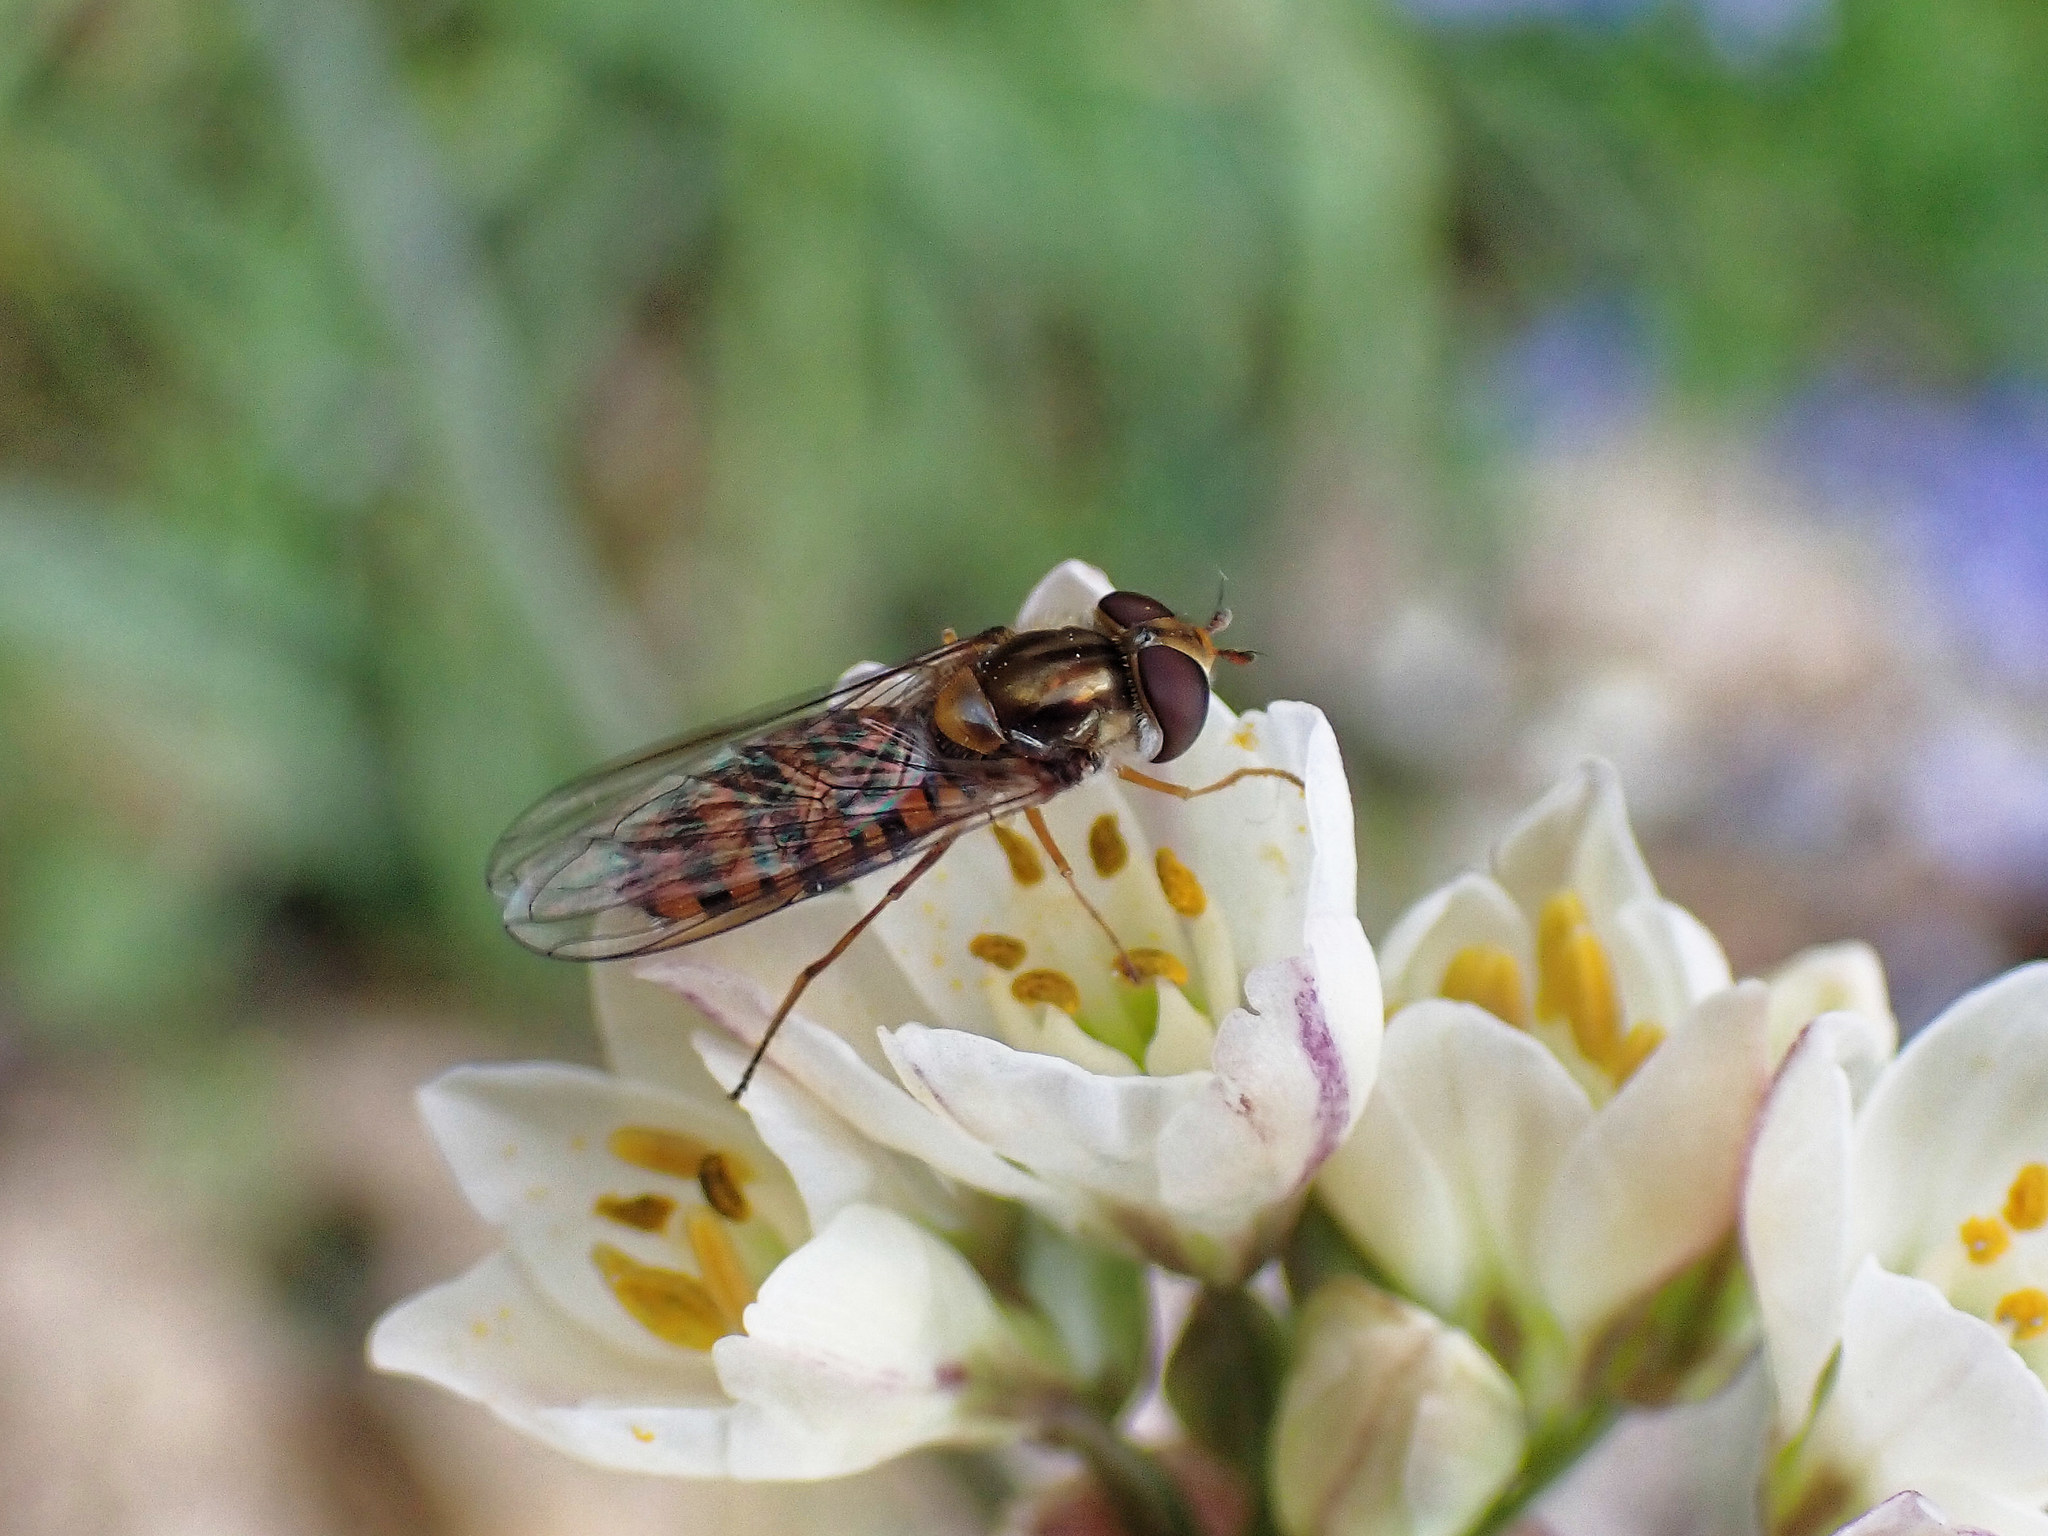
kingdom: Animalia
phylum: Arthropoda
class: Insecta
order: Diptera
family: Syrphidae
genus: Episyrphus
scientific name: Episyrphus balteatus
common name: Marmalade hoverfly
